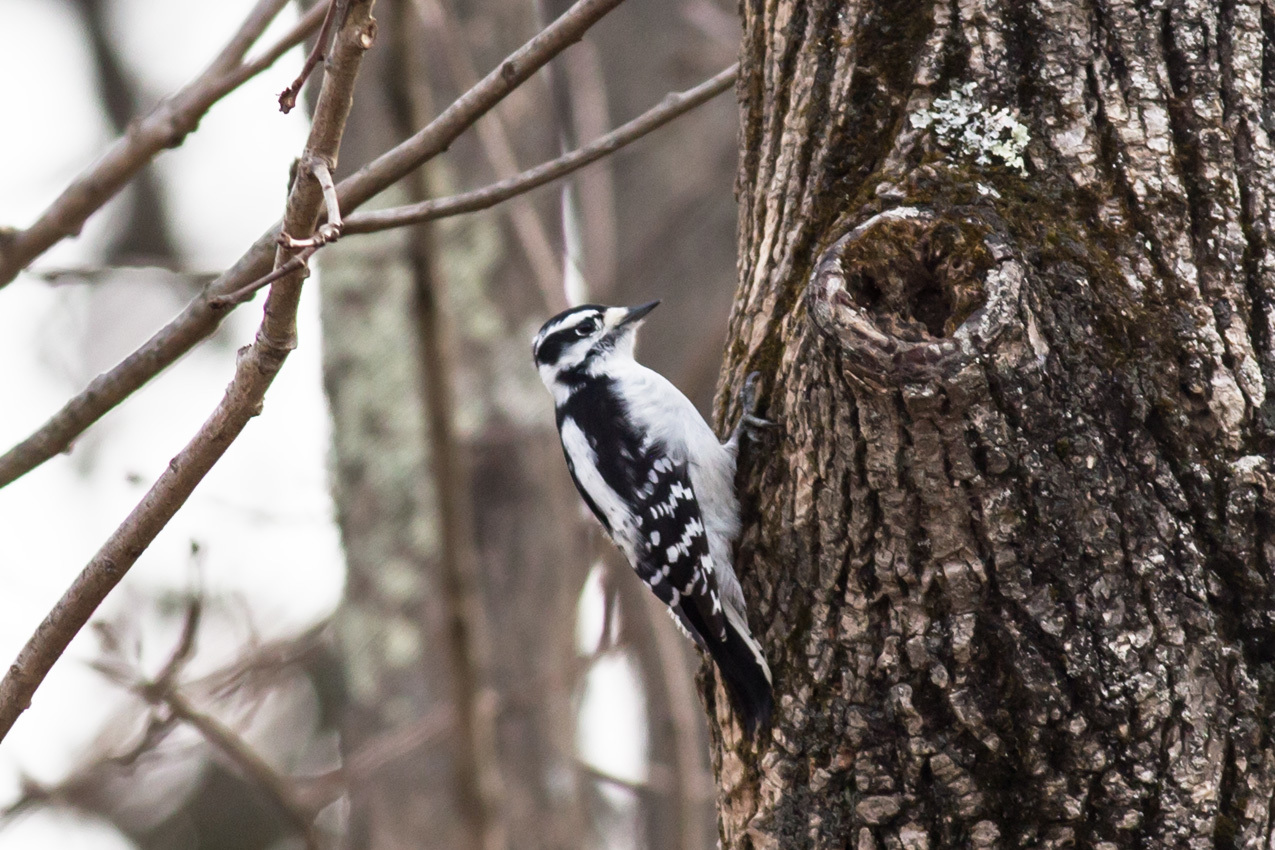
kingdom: Animalia
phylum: Chordata
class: Aves
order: Piciformes
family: Picidae
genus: Dryobates
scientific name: Dryobates pubescens
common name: Downy woodpecker
